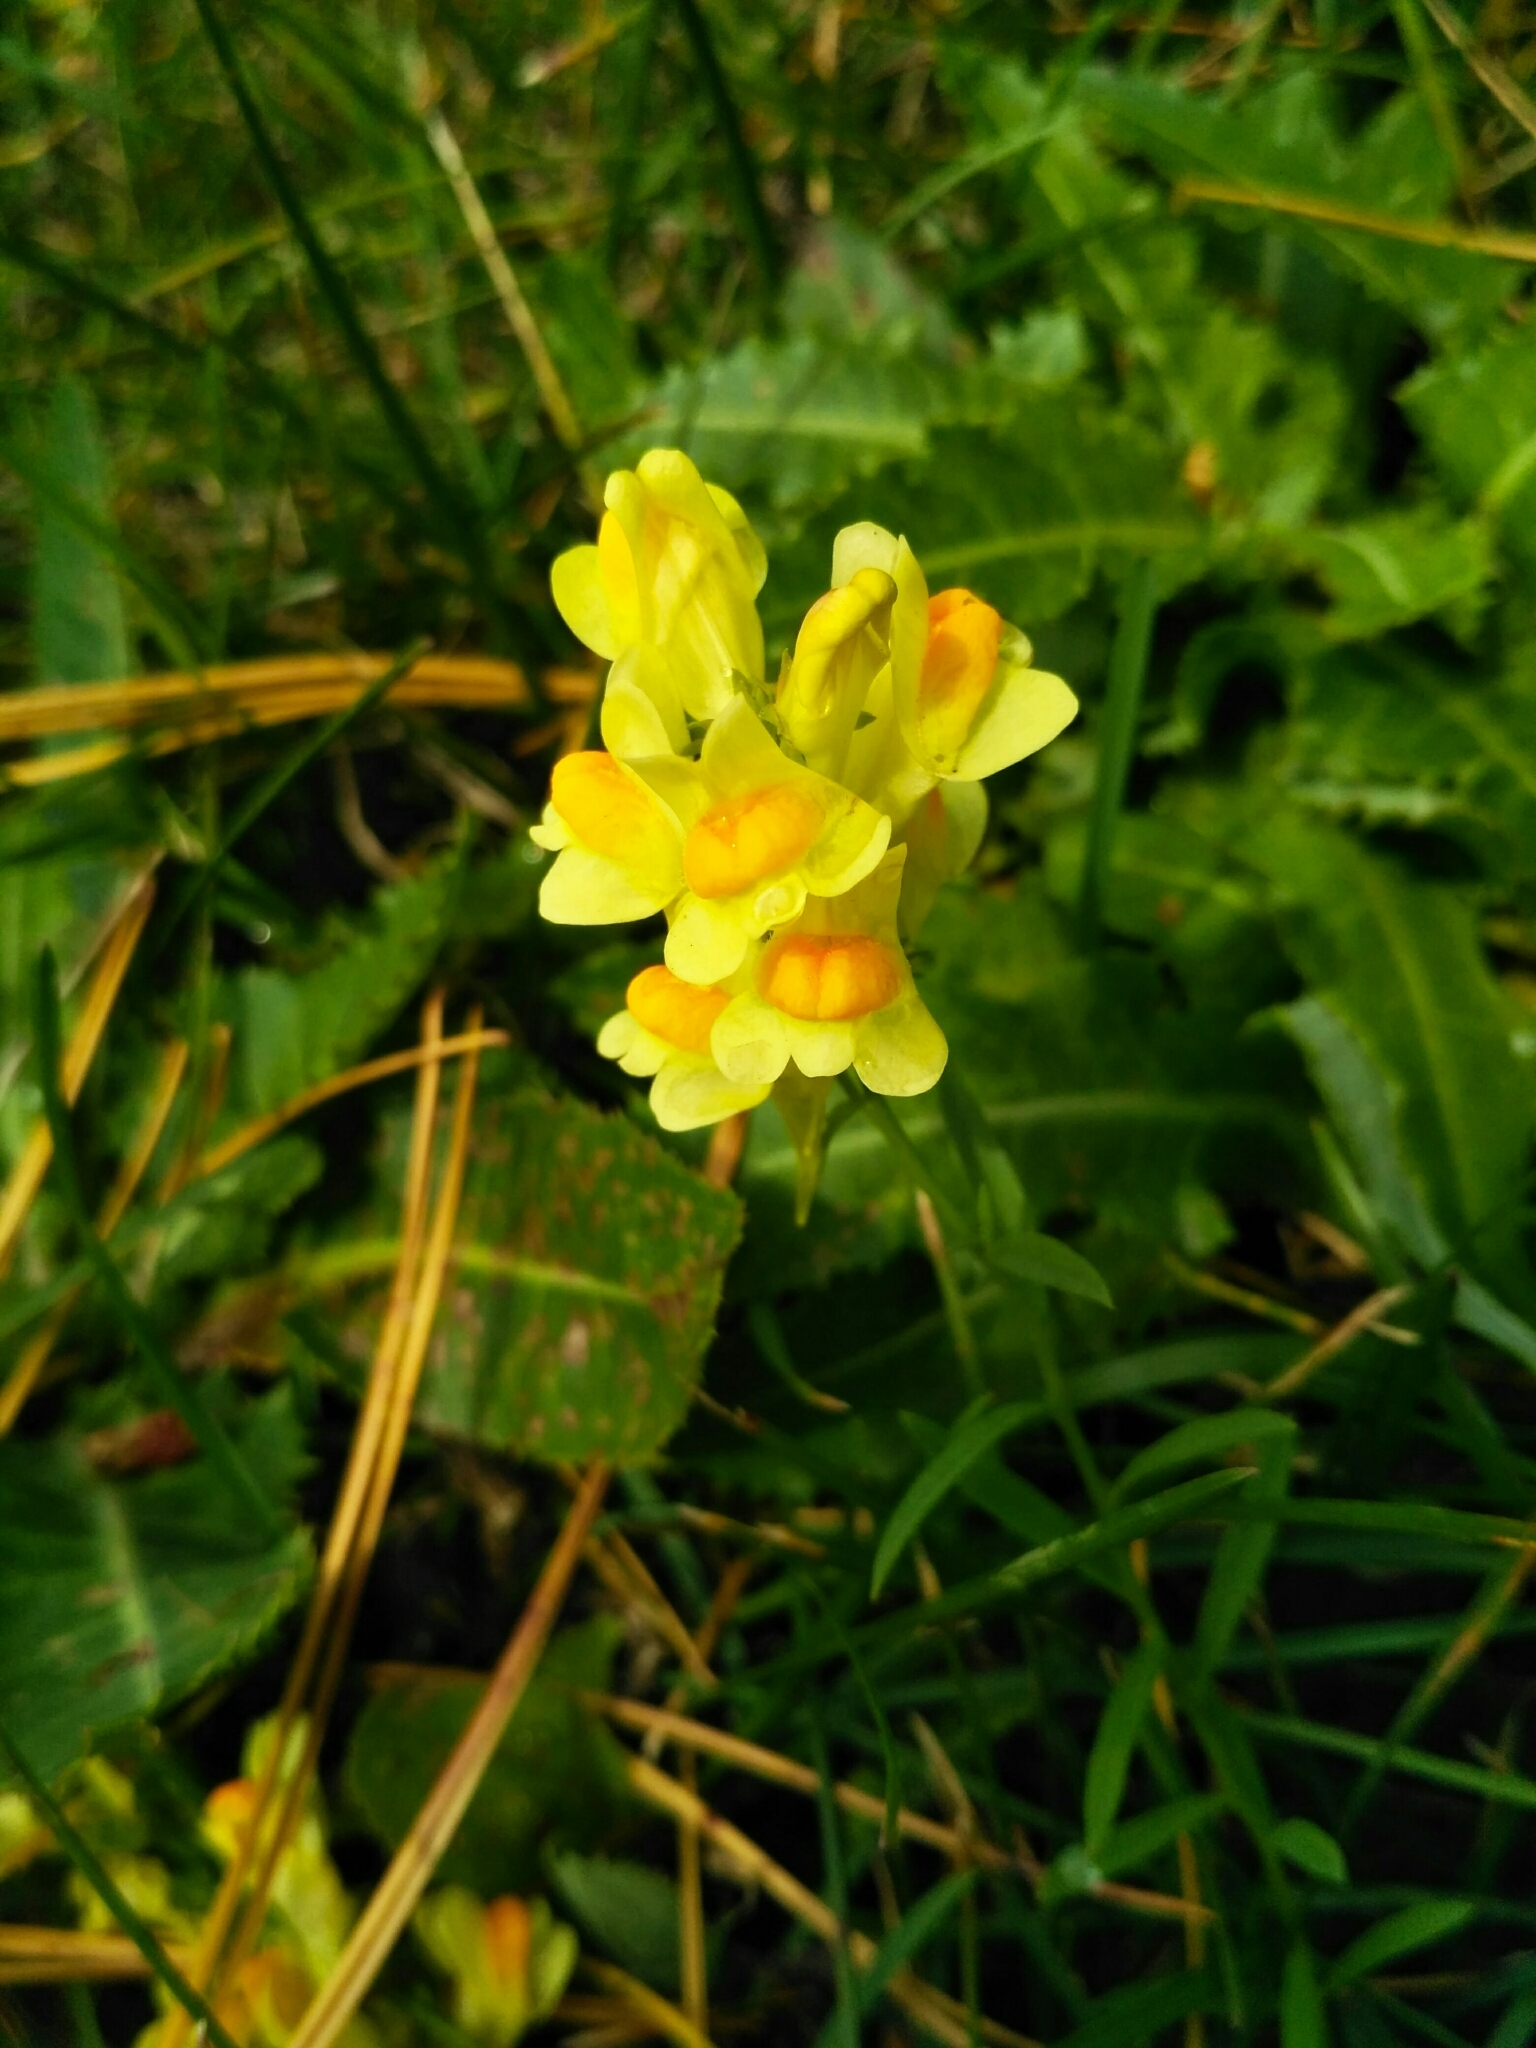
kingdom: Plantae
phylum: Tracheophyta
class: Magnoliopsida
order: Lamiales
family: Plantaginaceae
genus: Linaria
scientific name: Linaria vulgaris
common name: Butter and eggs
